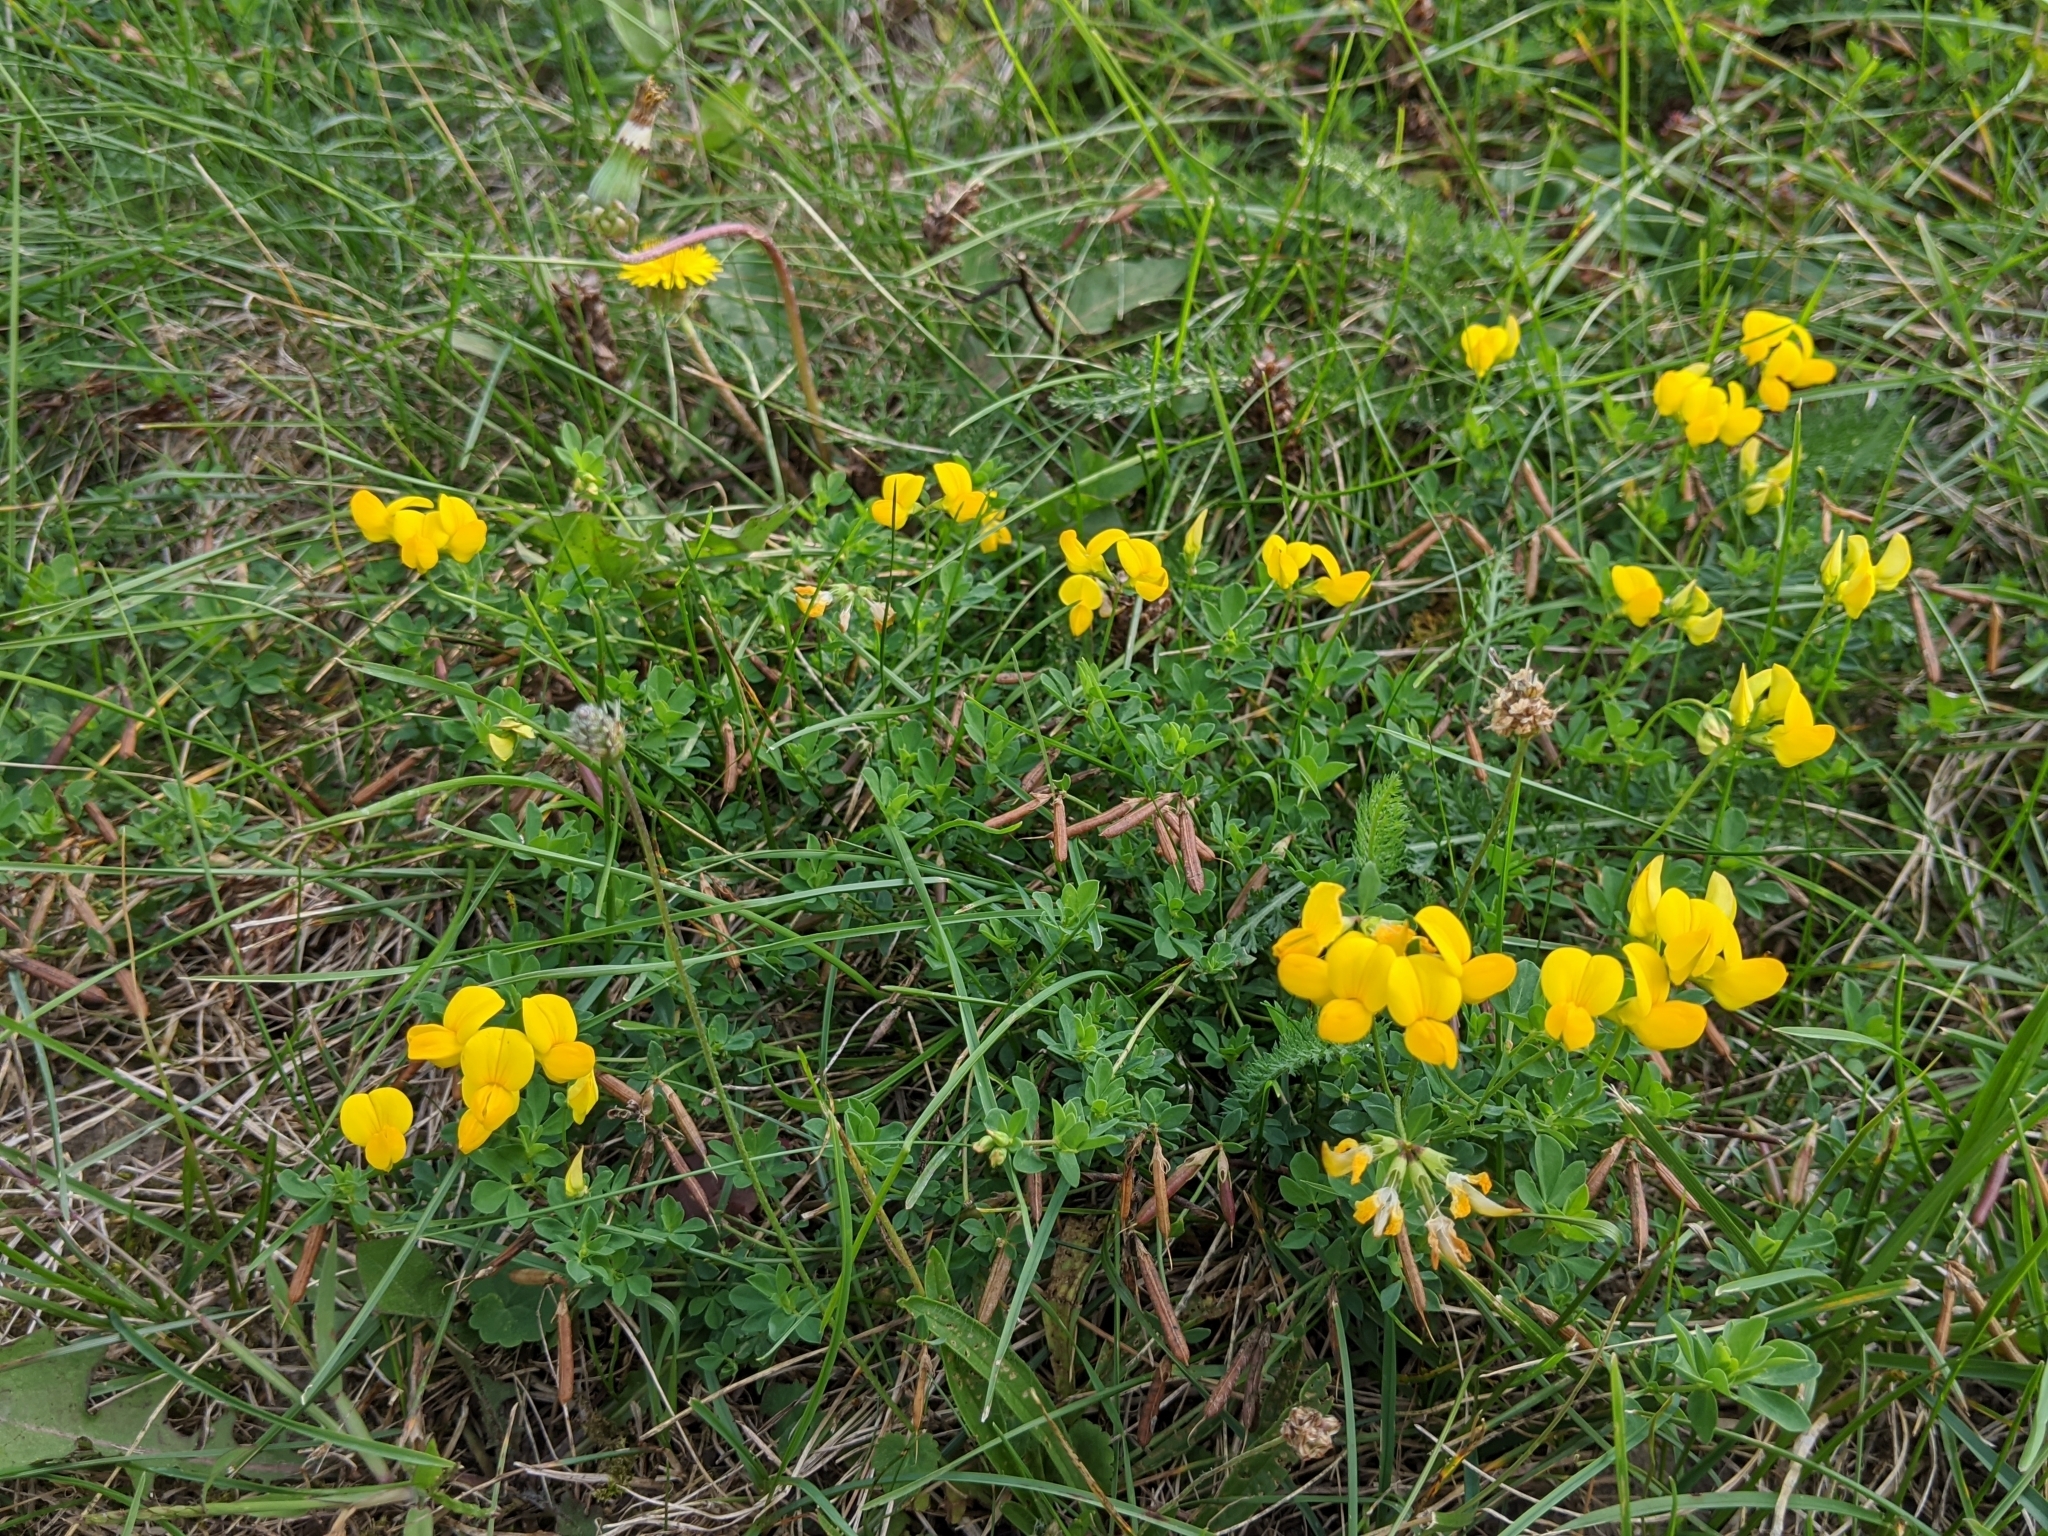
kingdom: Plantae
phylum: Tracheophyta
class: Magnoliopsida
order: Fabales
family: Fabaceae
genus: Lotus
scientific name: Lotus corniculatus
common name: Common bird's-foot-trefoil
